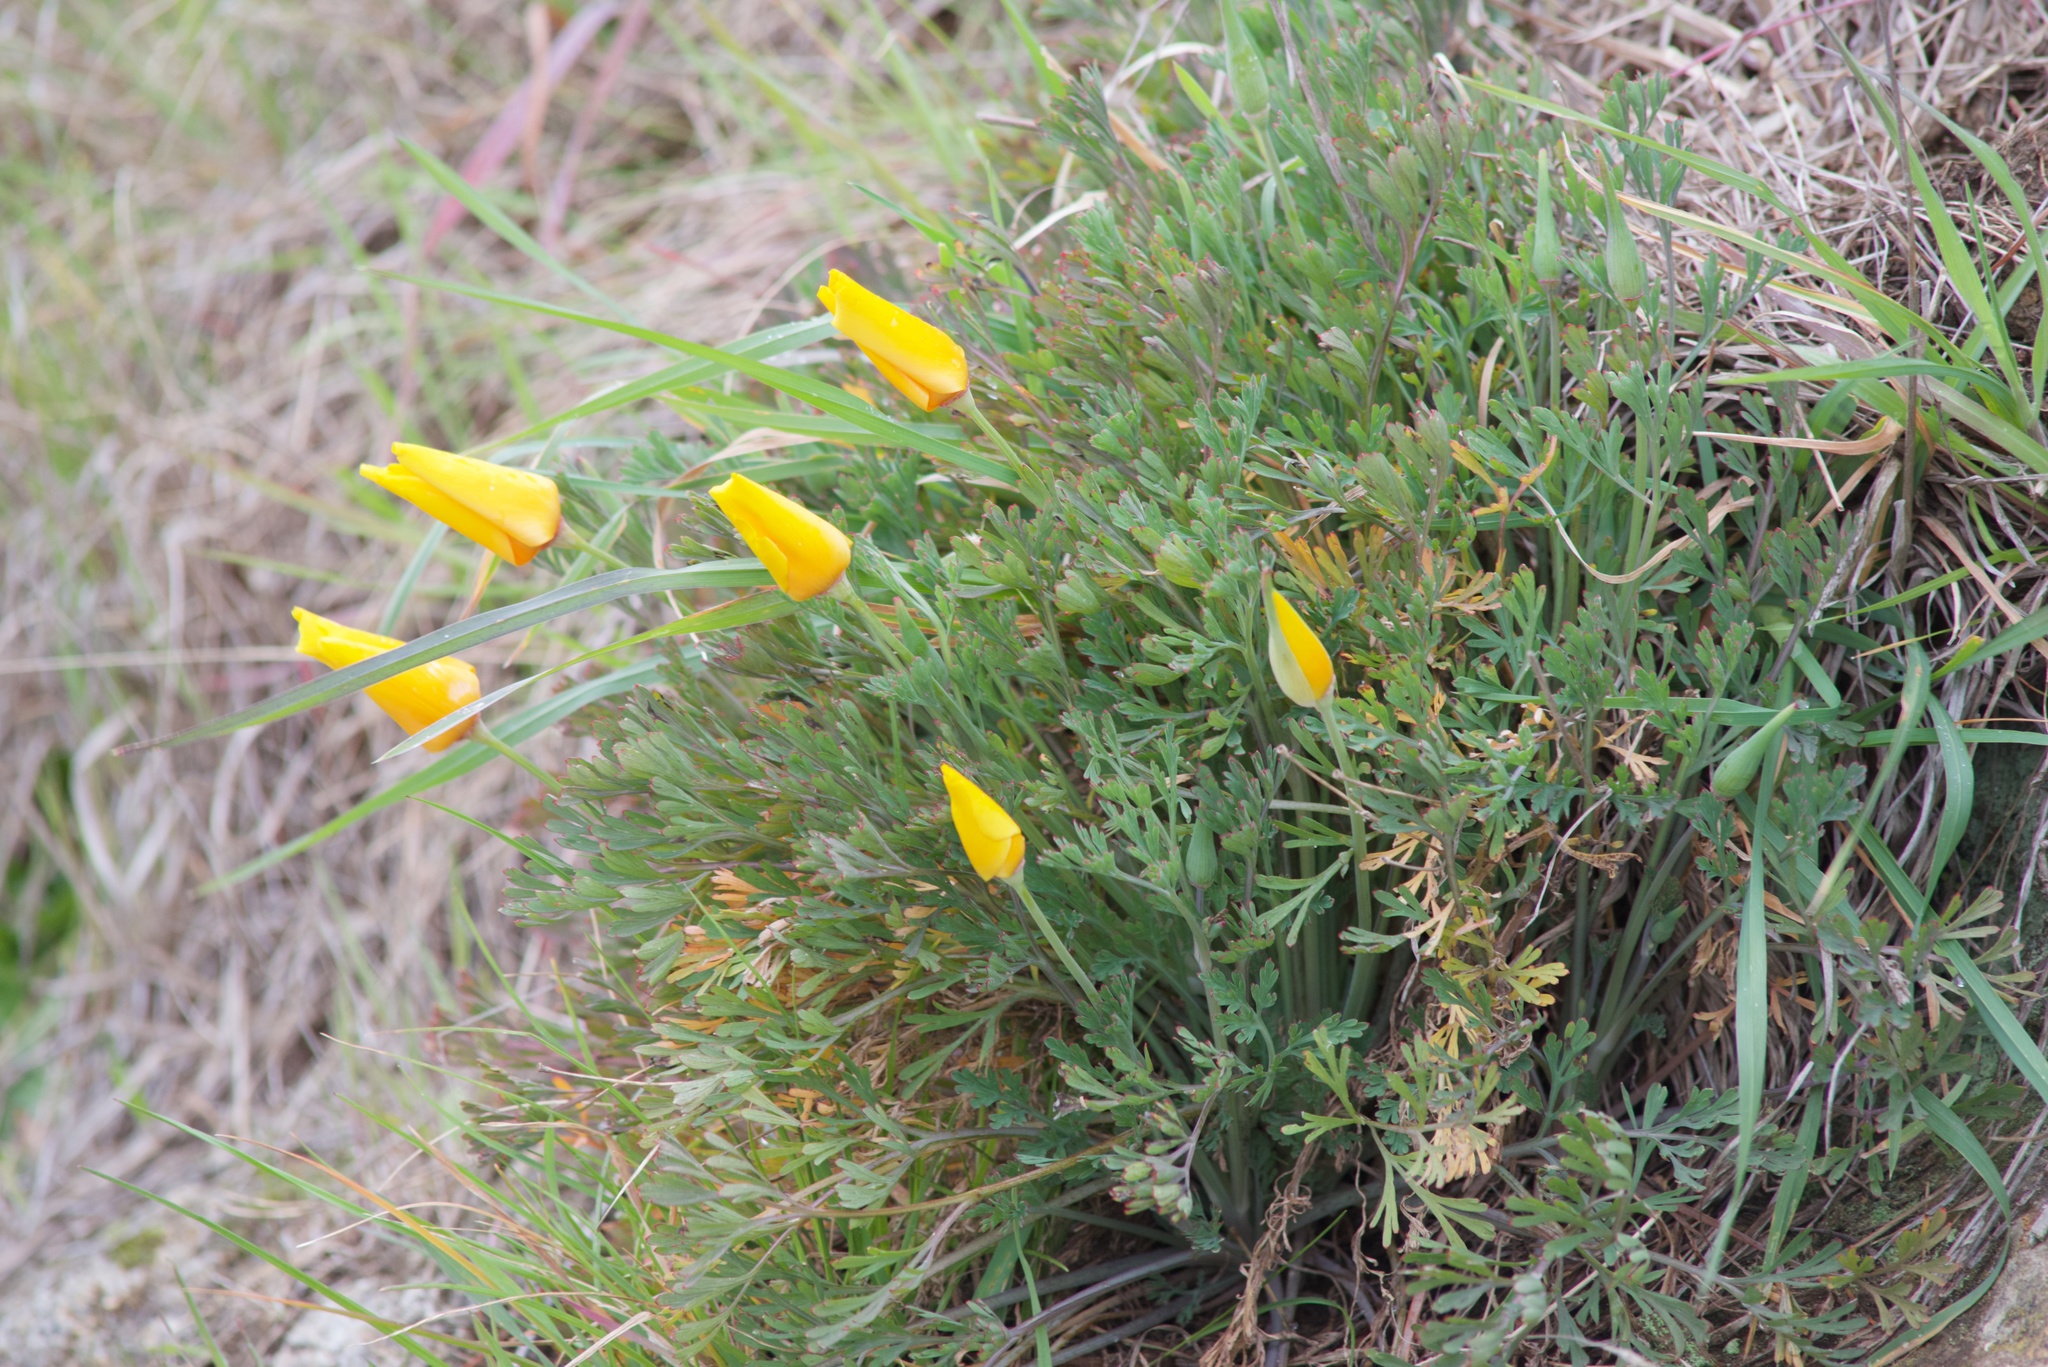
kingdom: Plantae
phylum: Tracheophyta
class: Magnoliopsida
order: Ranunculales
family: Papaveraceae
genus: Eschscholzia
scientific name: Eschscholzia californica
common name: California poppy
